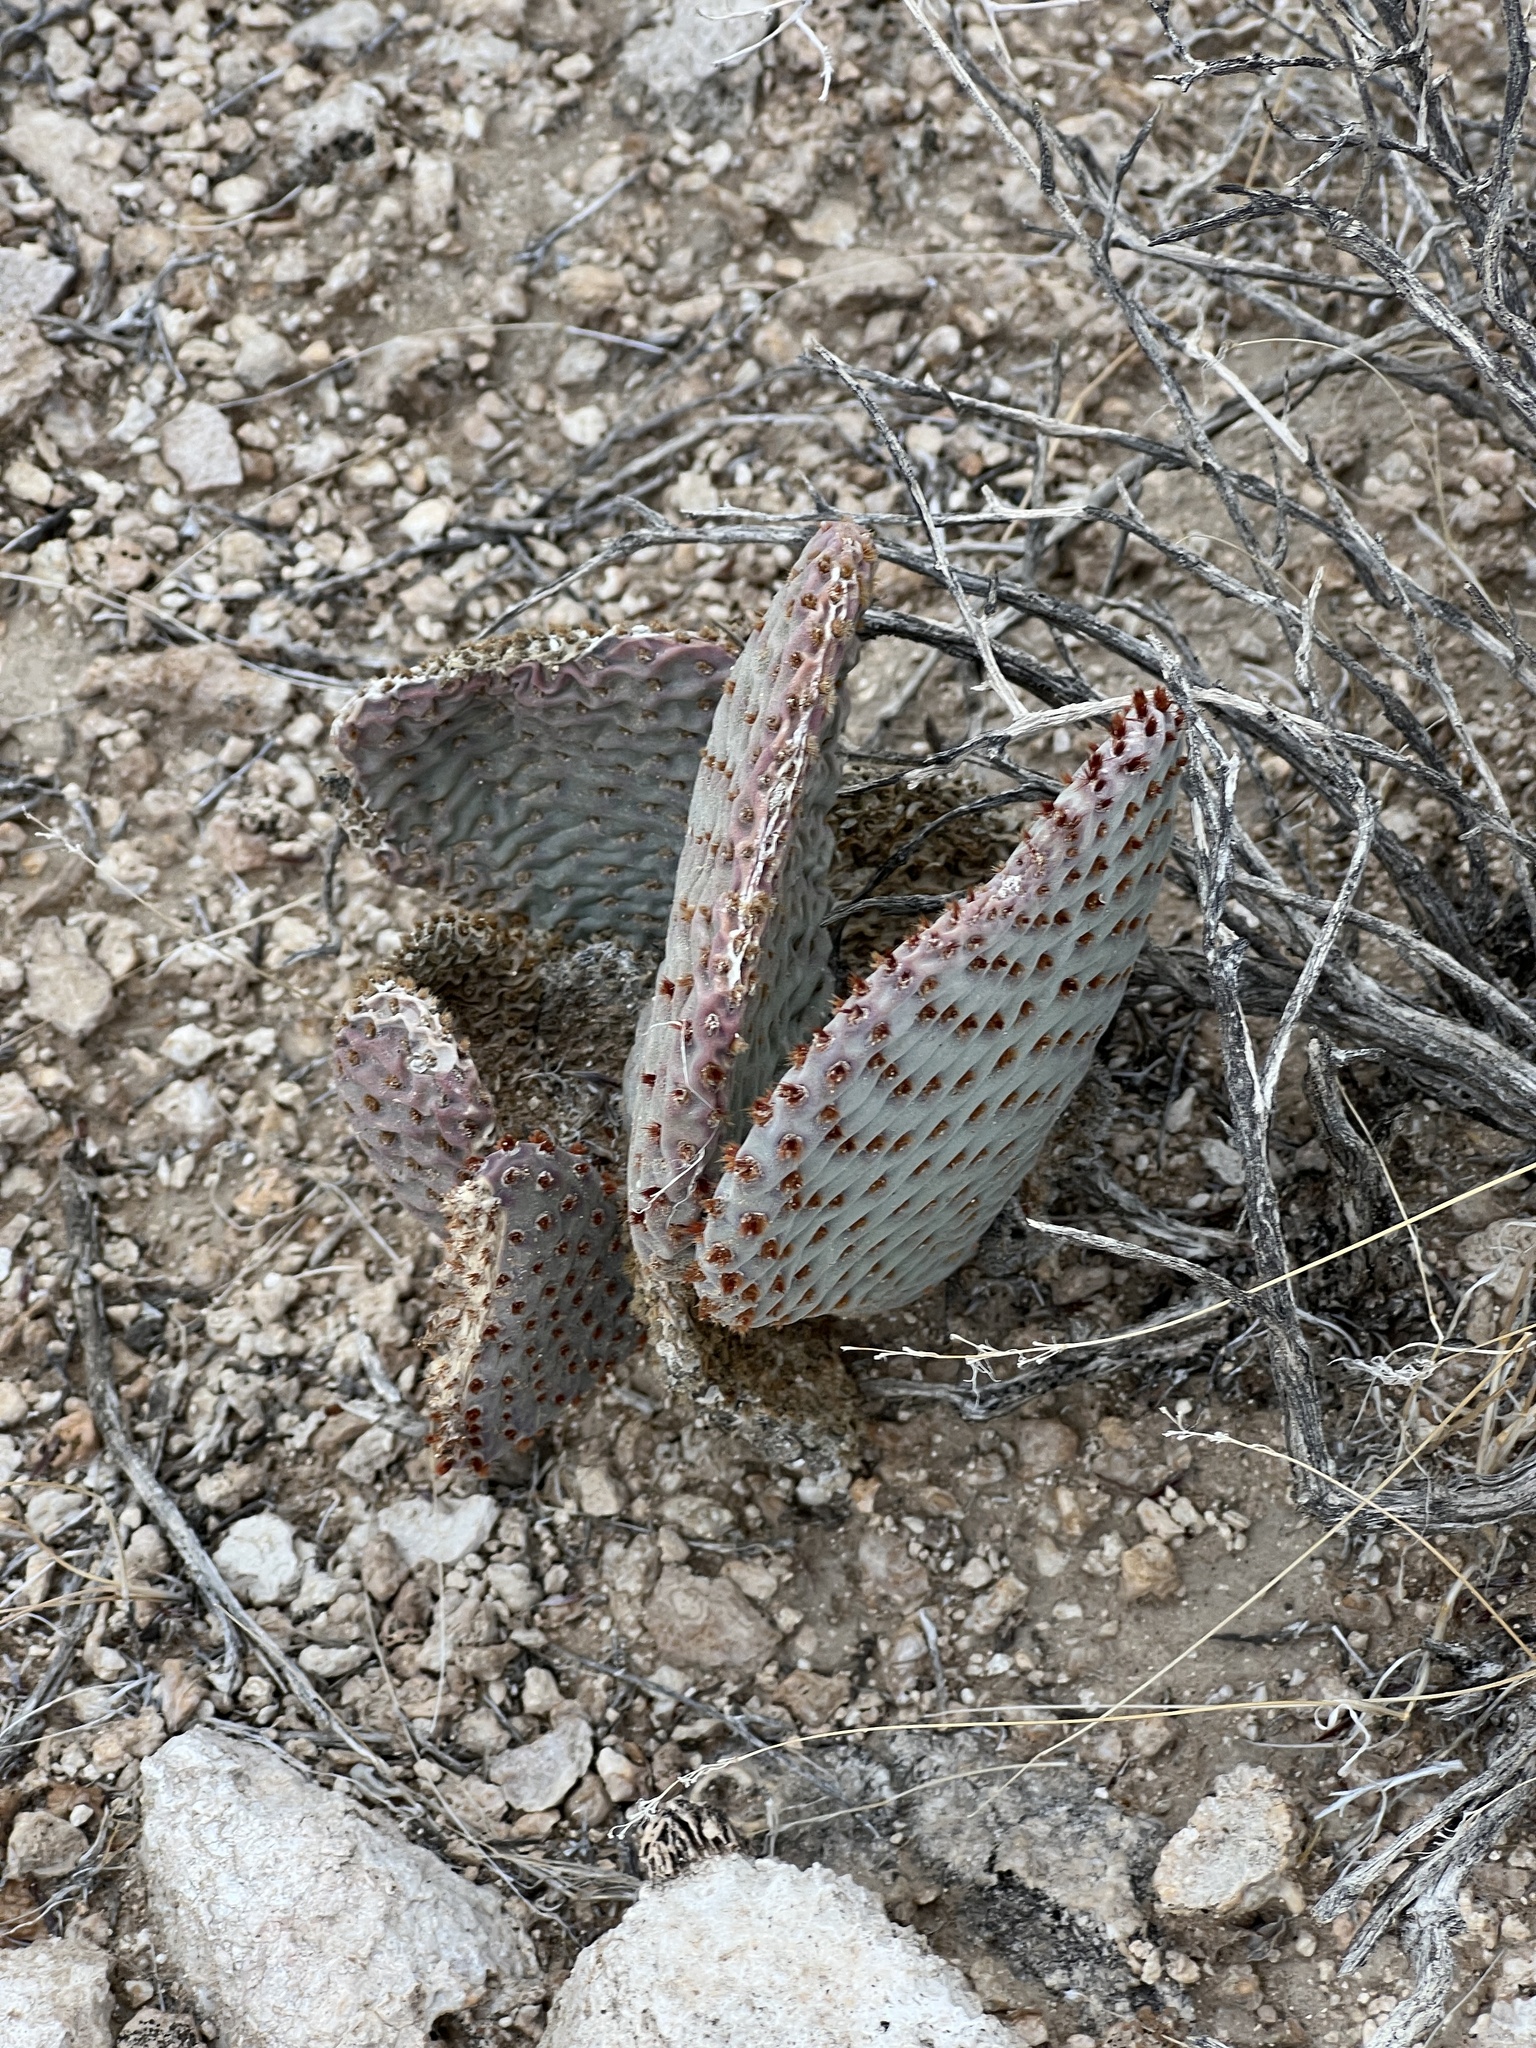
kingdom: Plantae
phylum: Tracheophyta
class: Magnoliopsida
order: Caryophyllales
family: Cactaceae
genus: Opuntia
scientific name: Opuntia basilaris
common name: Beavertail prickly-pear
